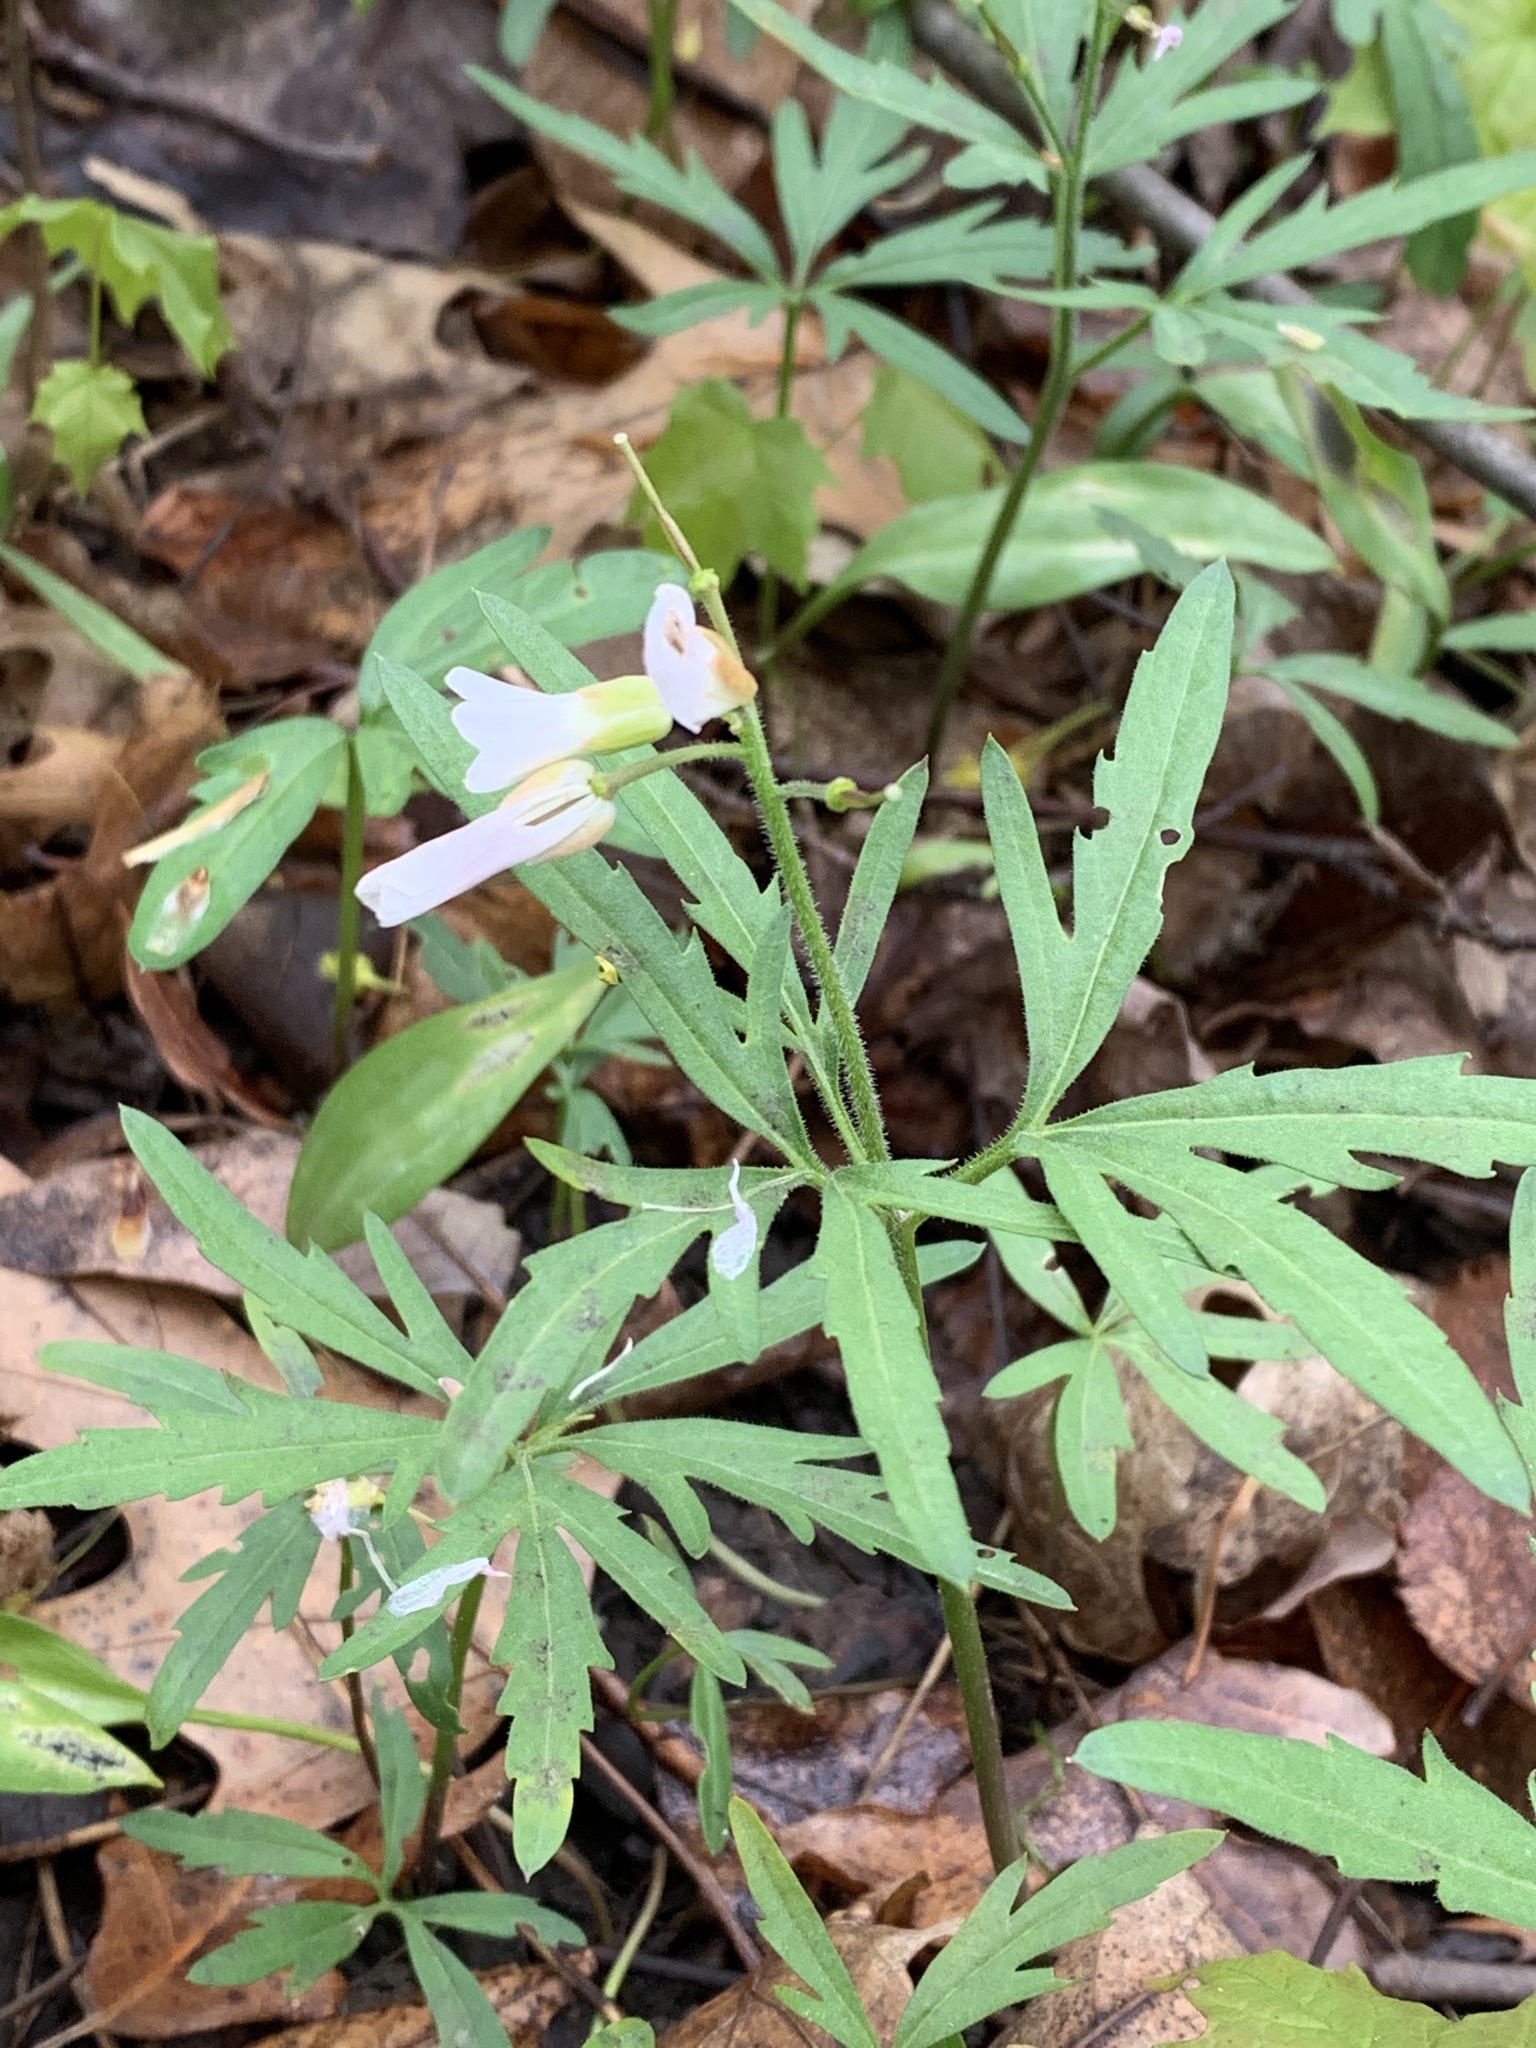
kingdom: Plantae
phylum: Tracheophyta
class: Magnoliopsida
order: Brassicales
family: Brassicaceae
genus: Cardamine
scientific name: Cardamine concatenata
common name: Cut-leaf toothcup
